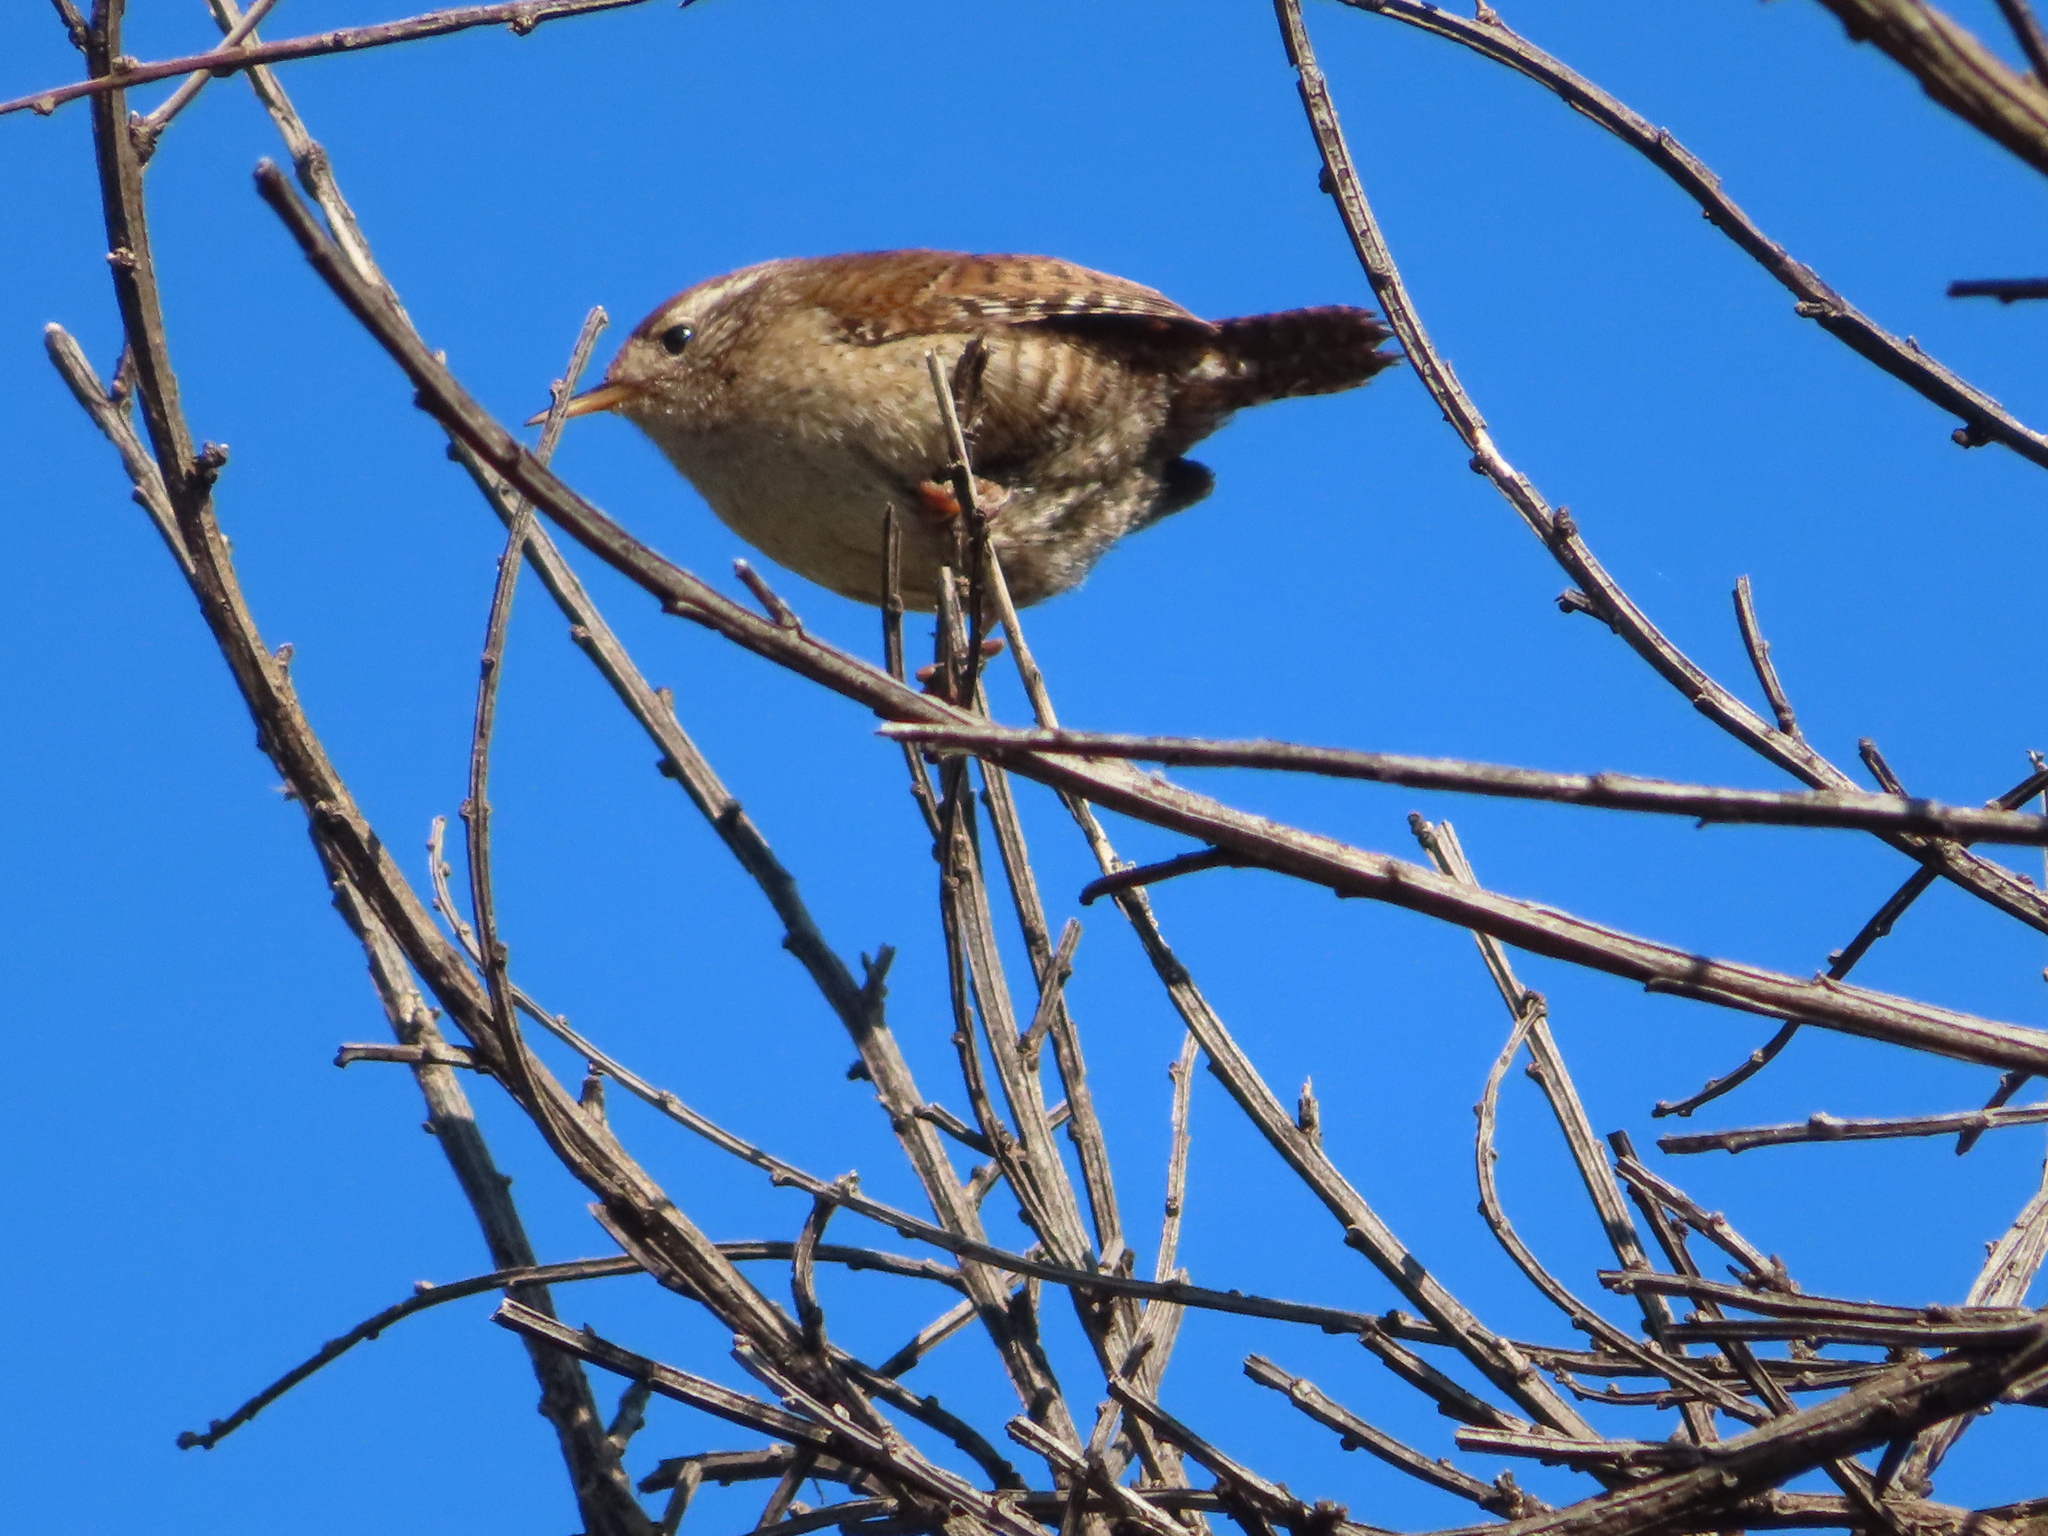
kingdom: Animalia
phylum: Chordata
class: Aves
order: Passeriformes
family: Troglodytidae
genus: Troglodytes
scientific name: Troglodytes troglodytes
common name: Eurasian wren
